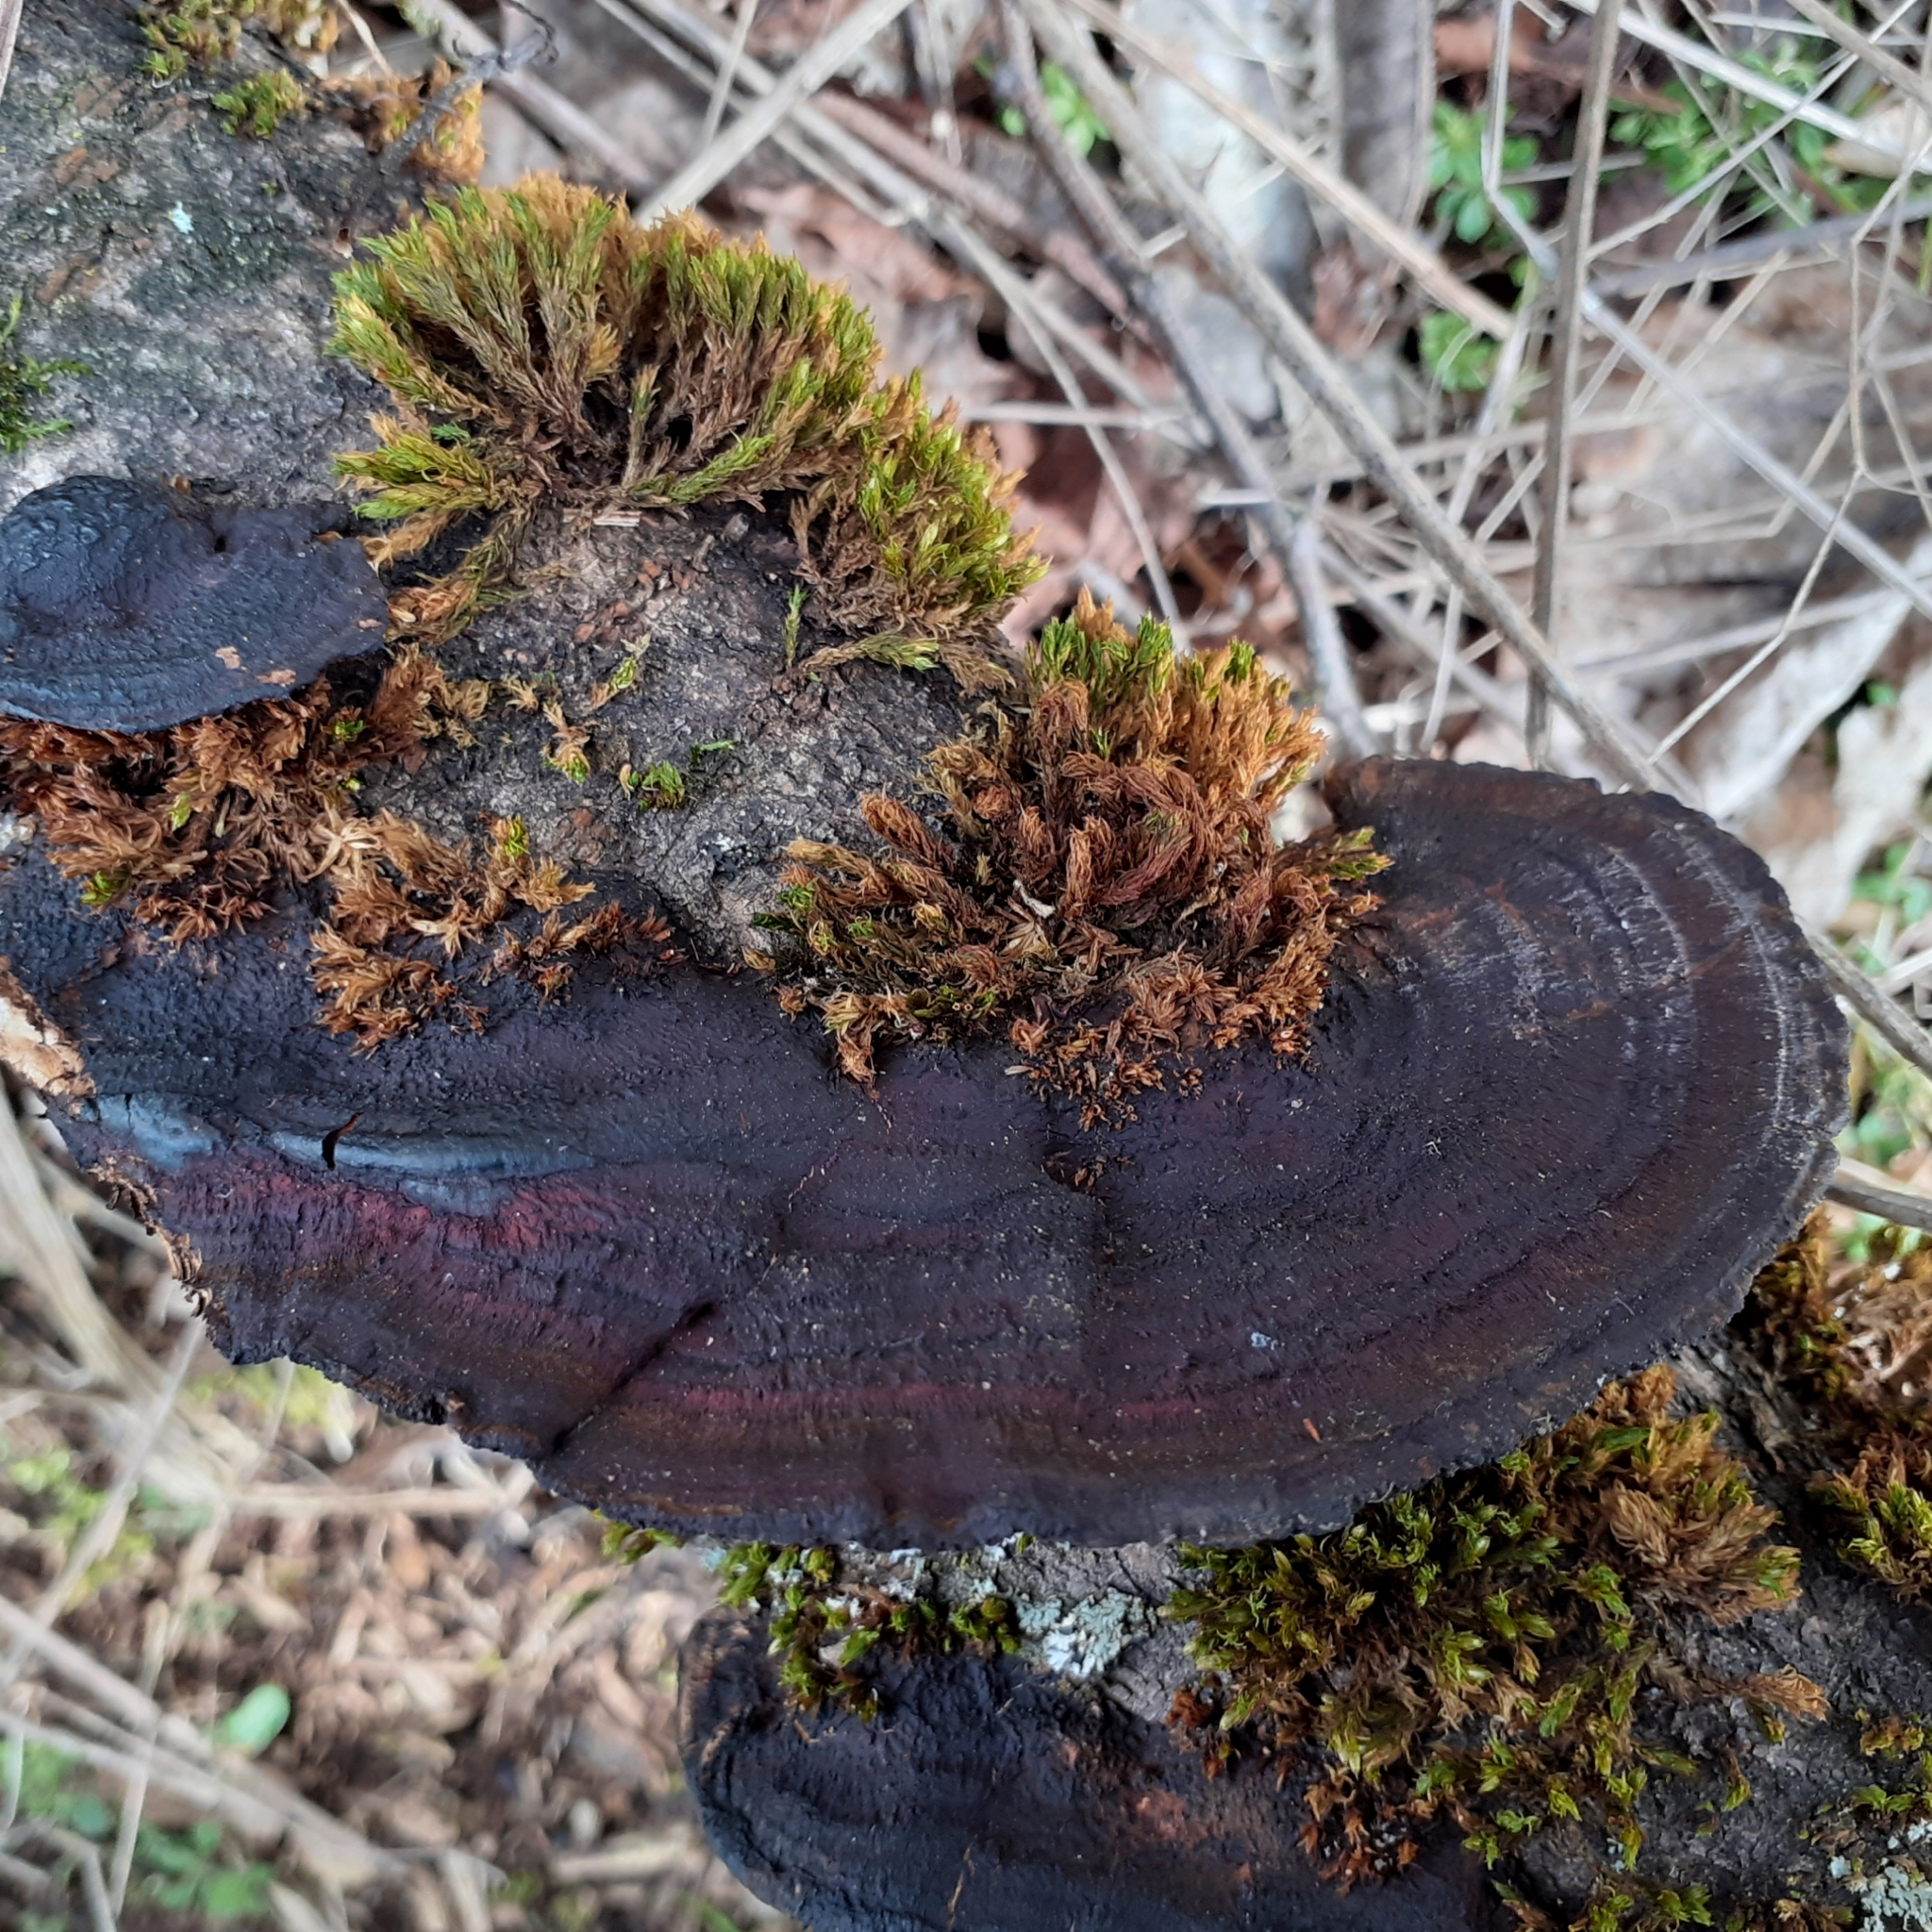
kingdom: Fungi
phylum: Basidiomycota
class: Agaricomycetes
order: Polyporales
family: Polyporaceae
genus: Daedaleopsis
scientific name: Daedaleopsis tricolor
